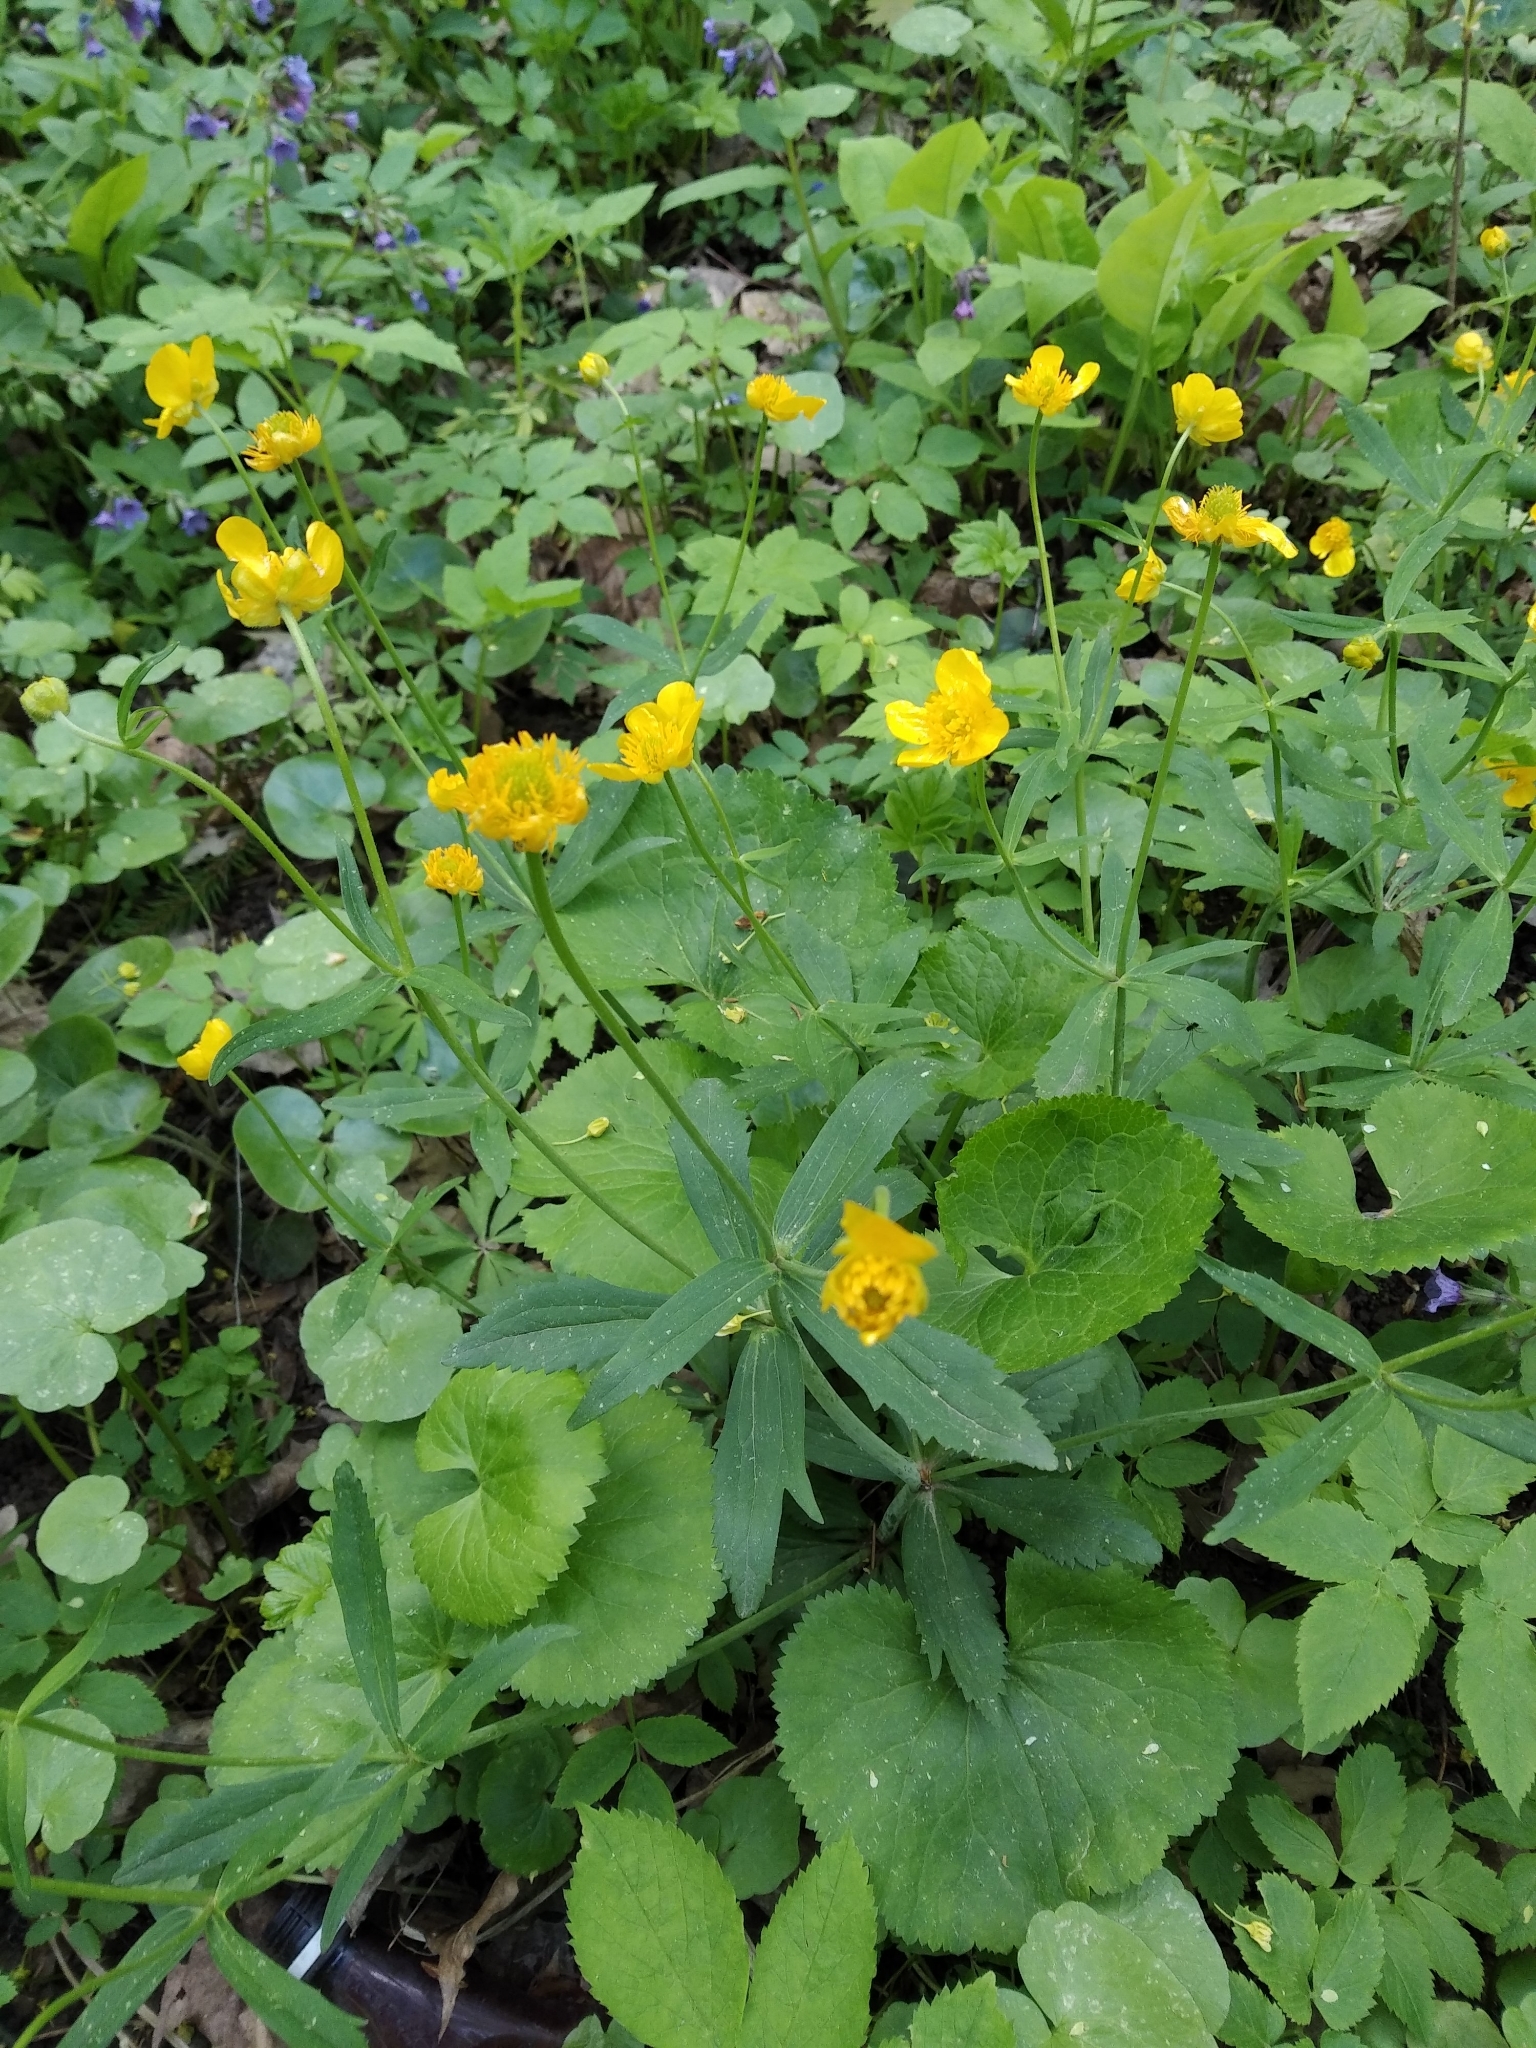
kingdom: Plantae
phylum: Tracheophyta
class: Magnoliopsida
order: Ranunculales
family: Ranunculaceae
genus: Ranunculus
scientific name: Ranunculus cassubicus
